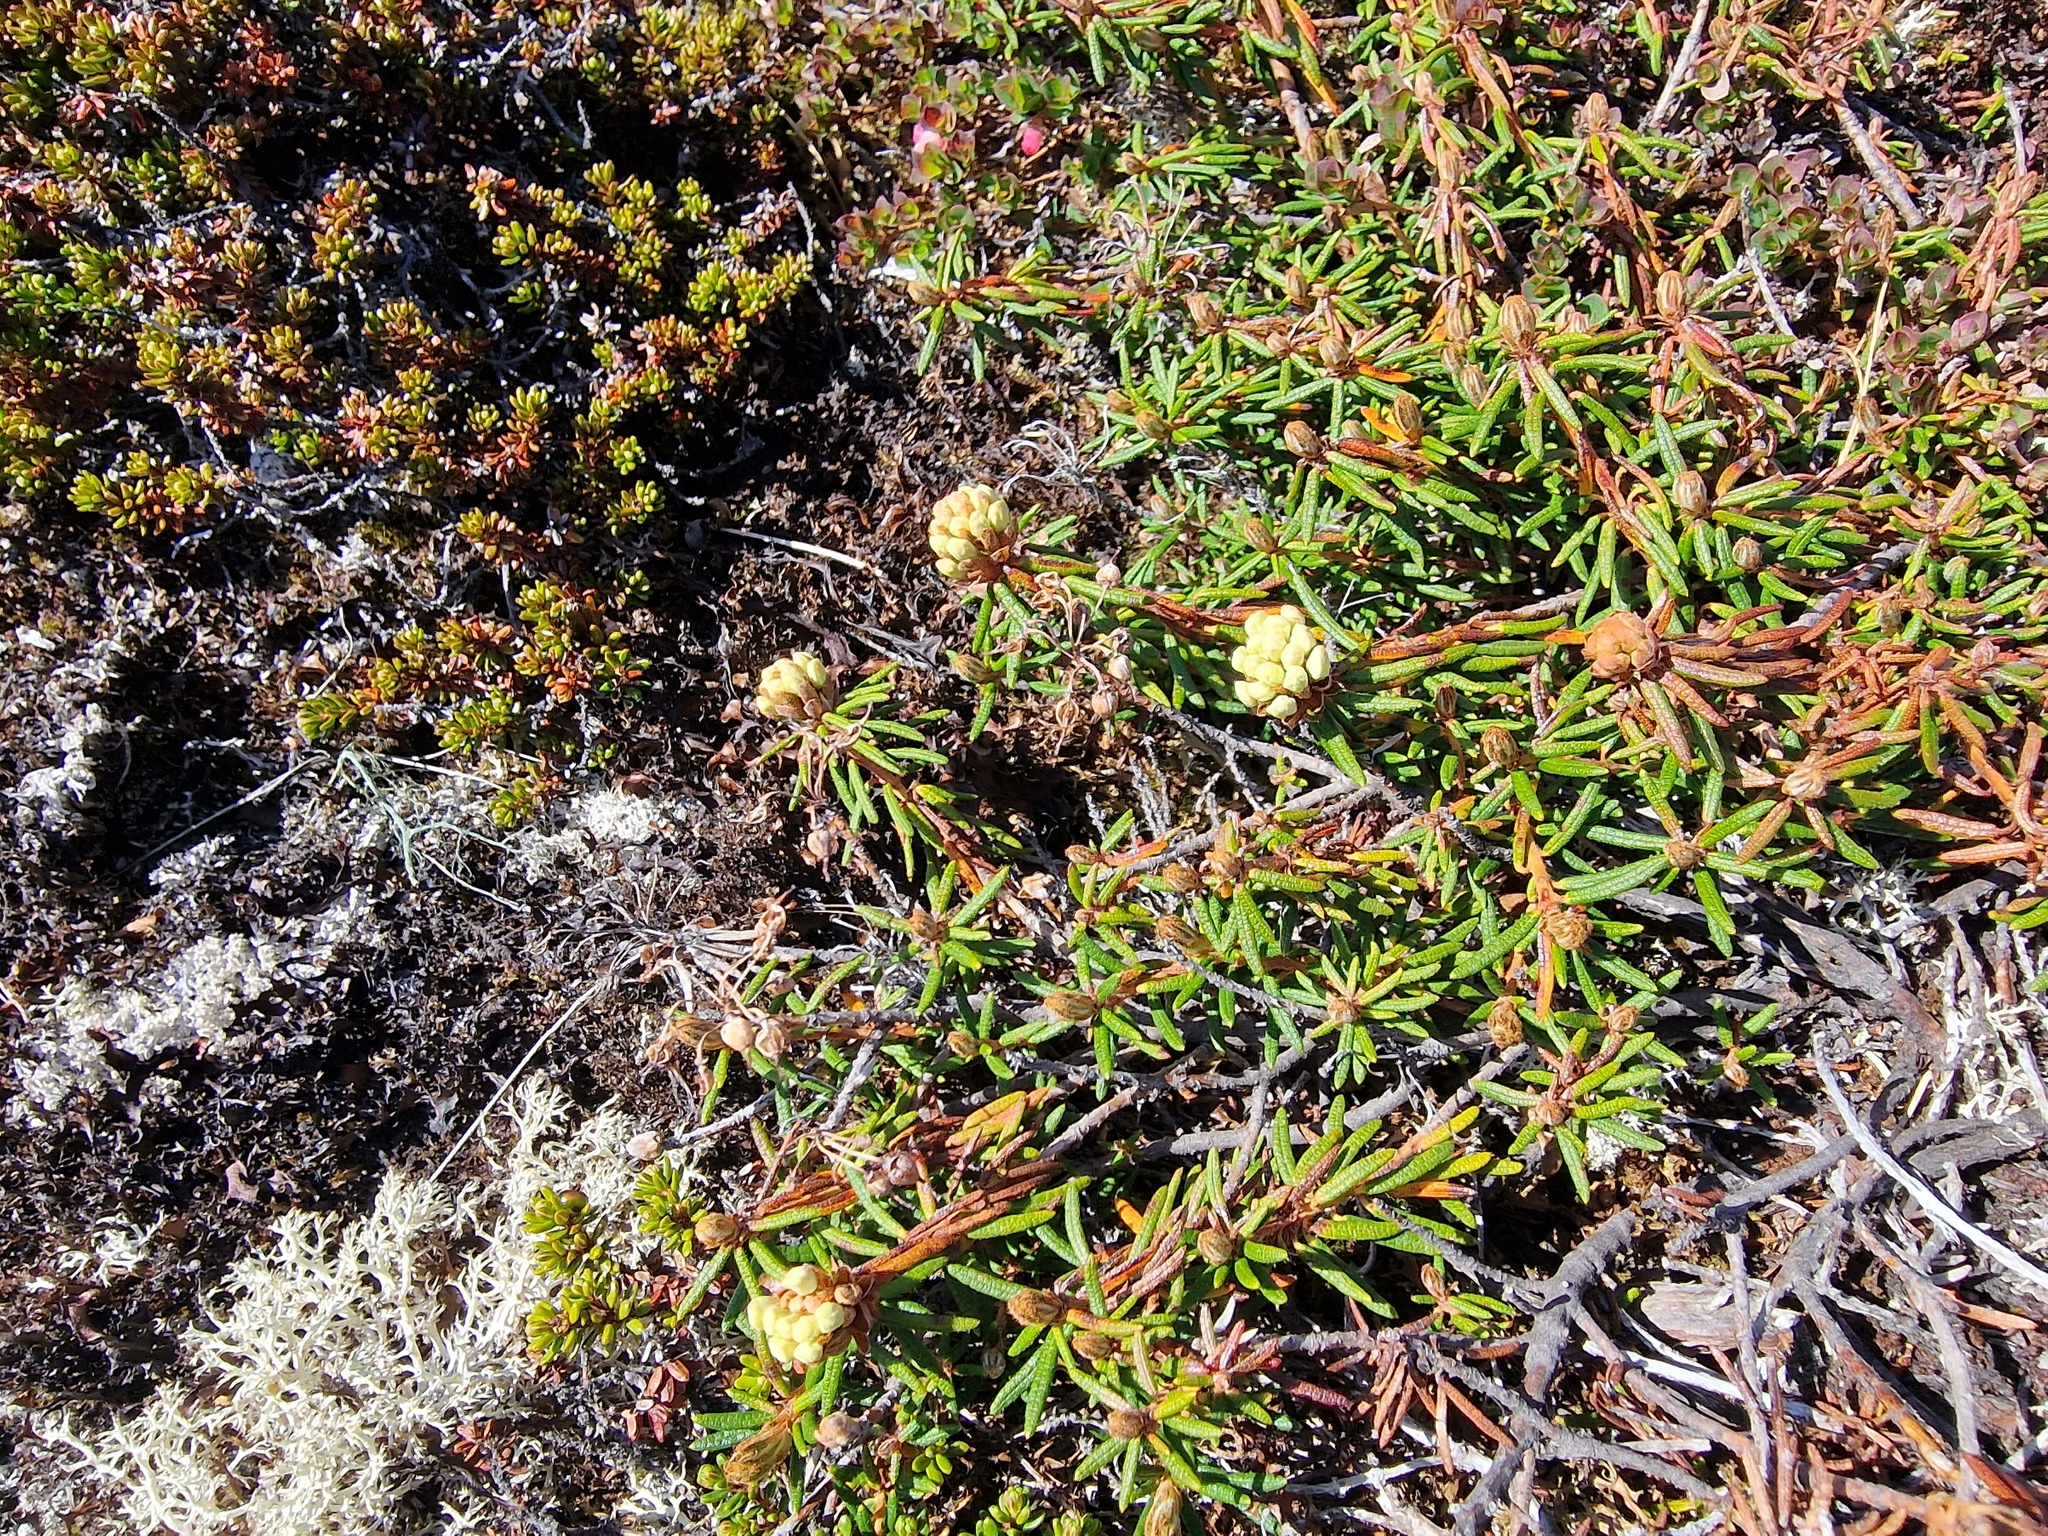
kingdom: Plantae
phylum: Tracheophyta
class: Magnoliopsida
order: Ericales
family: Ericaceae
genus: Rhododendron
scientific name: Rhododendron tomentosum
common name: Marsh labrador tea
